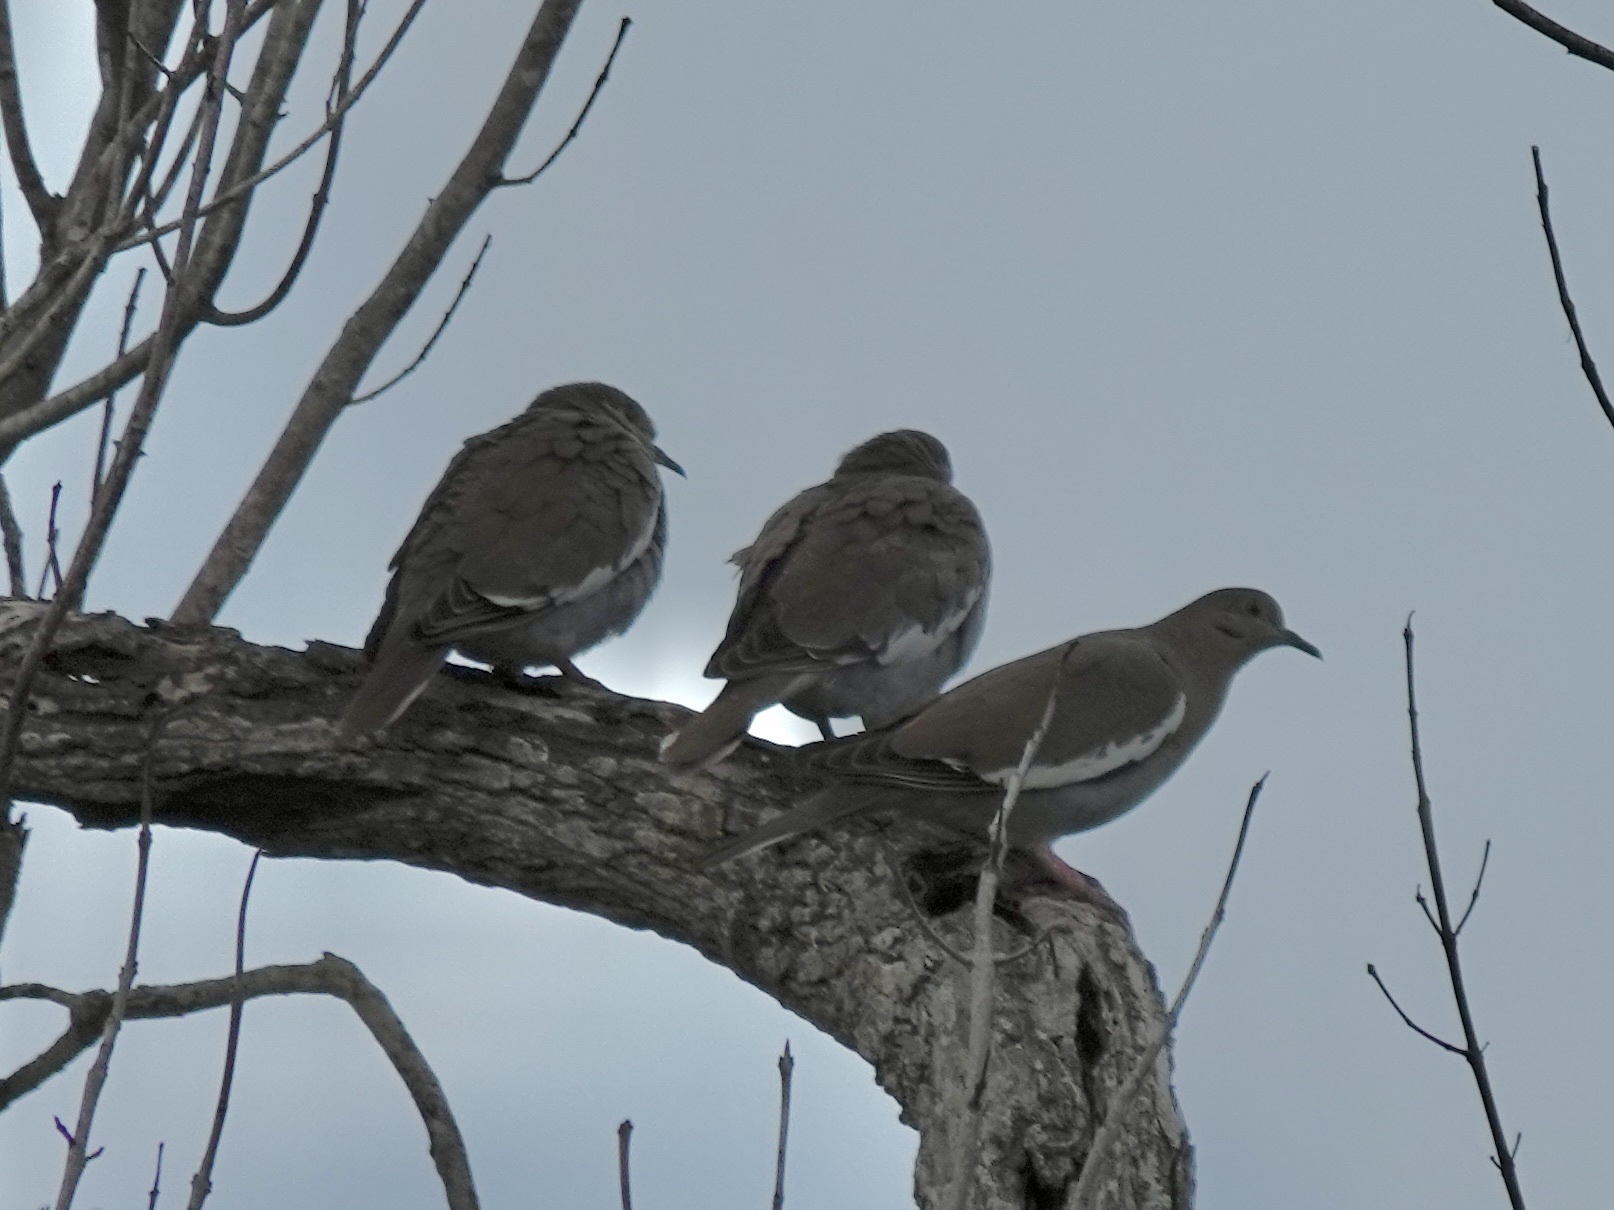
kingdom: Animalia
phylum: Chordata
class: Aves
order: Columbiformes
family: Columbidae
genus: Zenaida
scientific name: Zenaida asiatica
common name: White-winged dove
